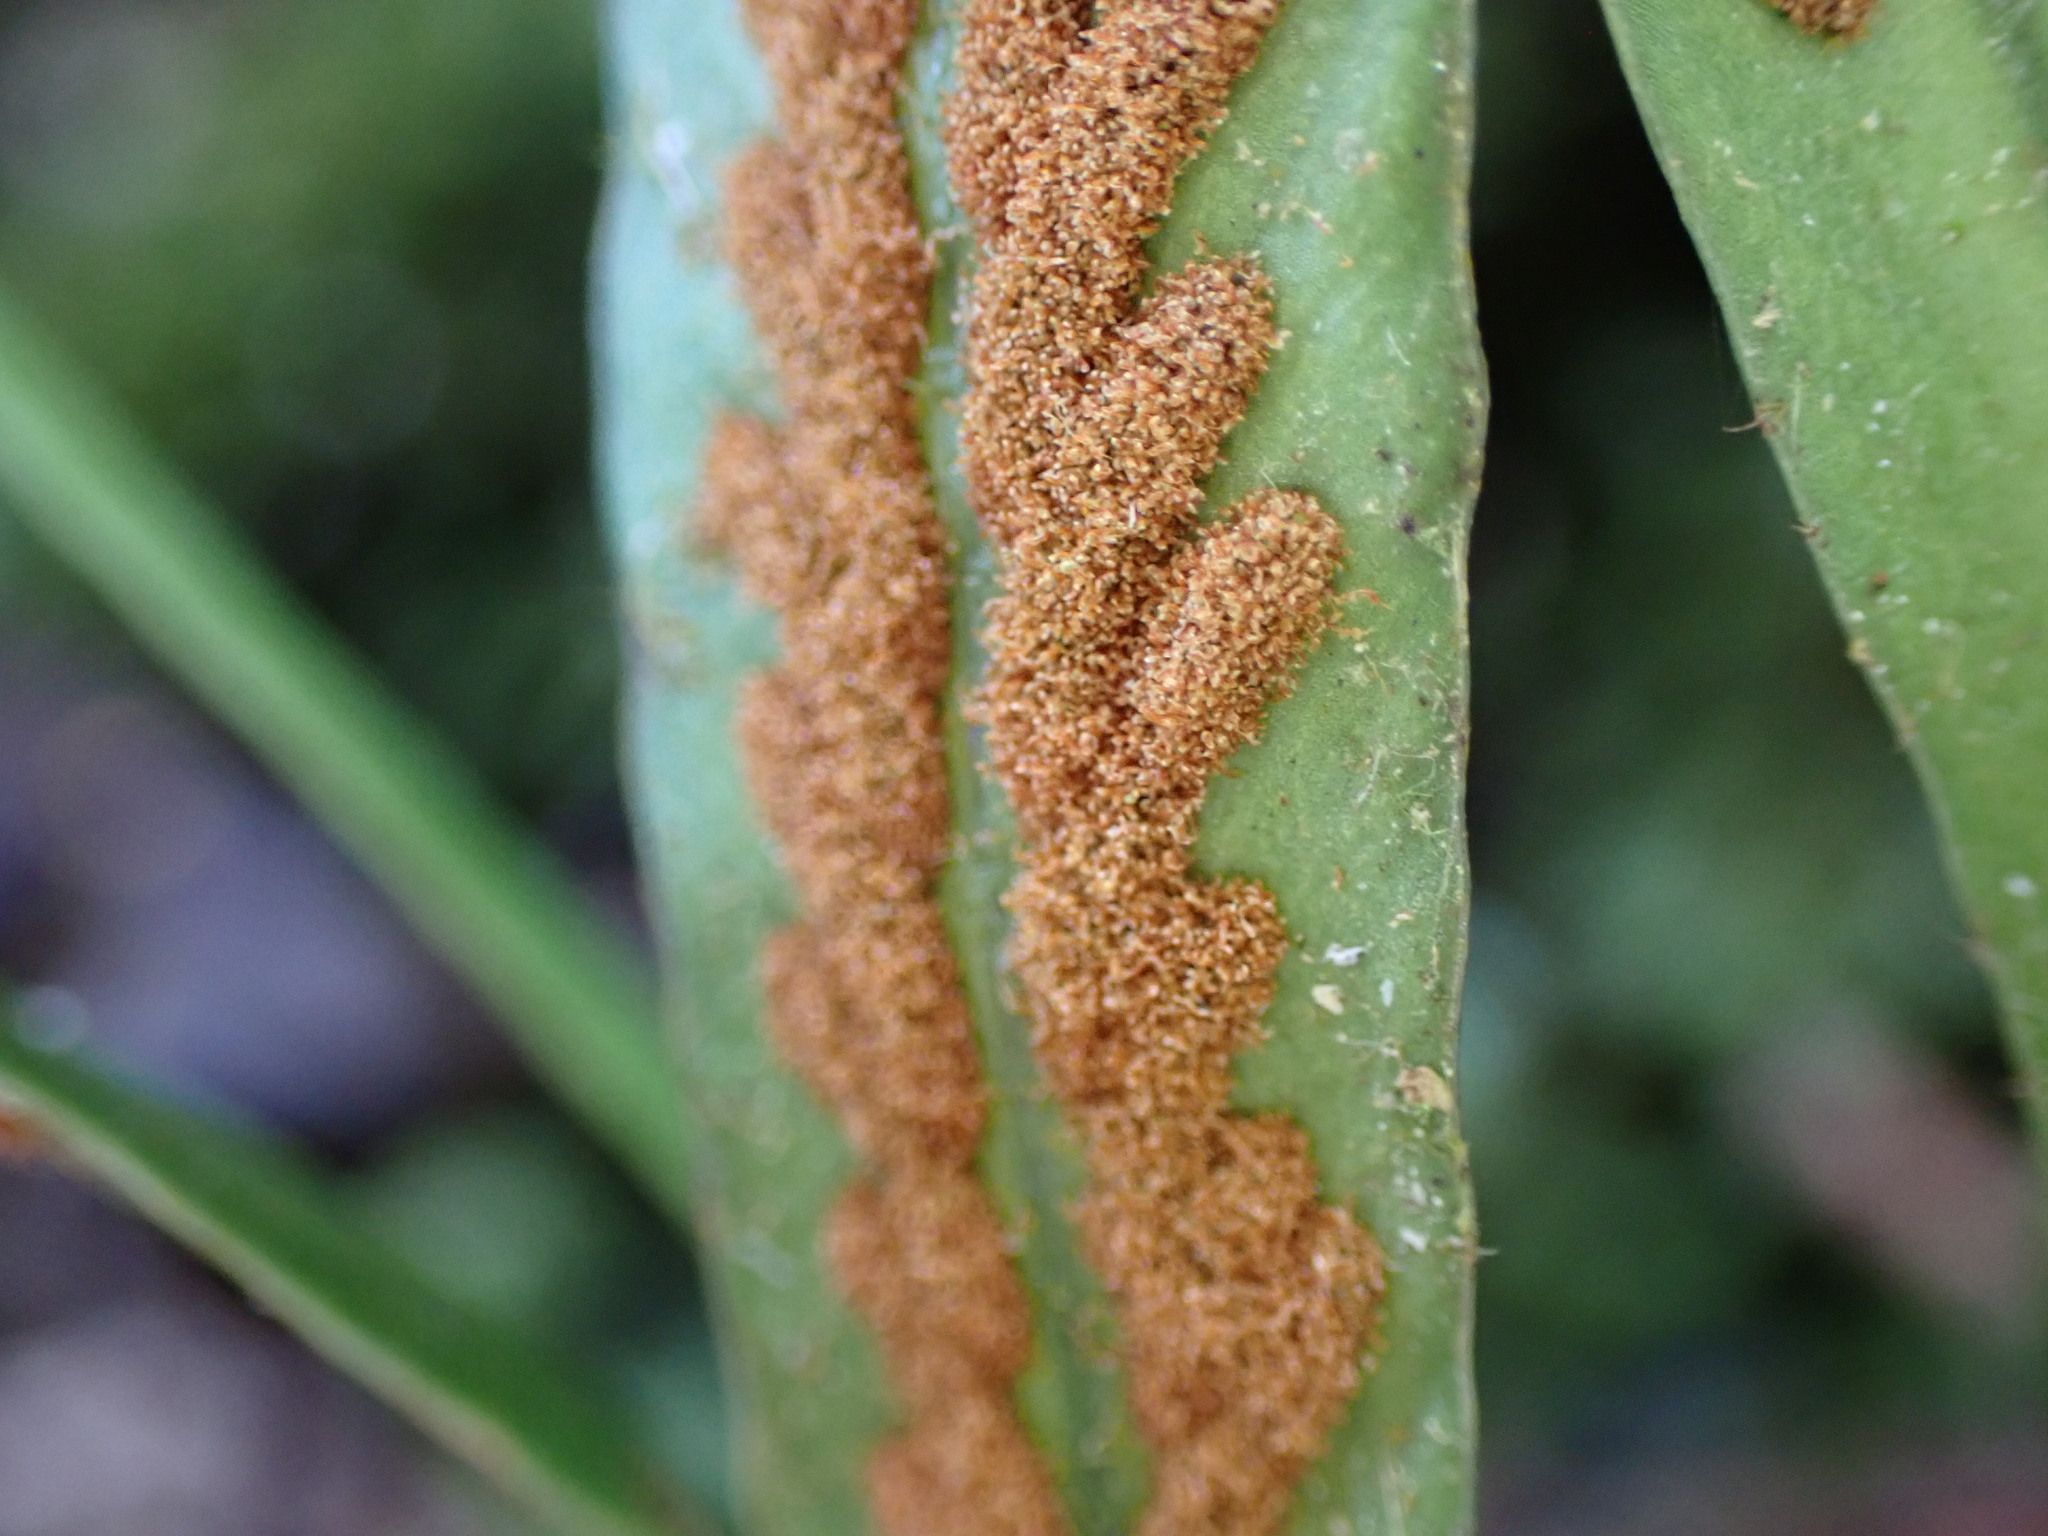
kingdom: Plantae
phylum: Tracheophyta
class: Polypodiopsida
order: Polypodiales
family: Polypodiaceae
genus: Notogrammitis
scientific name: Notogrammitis billardierei
